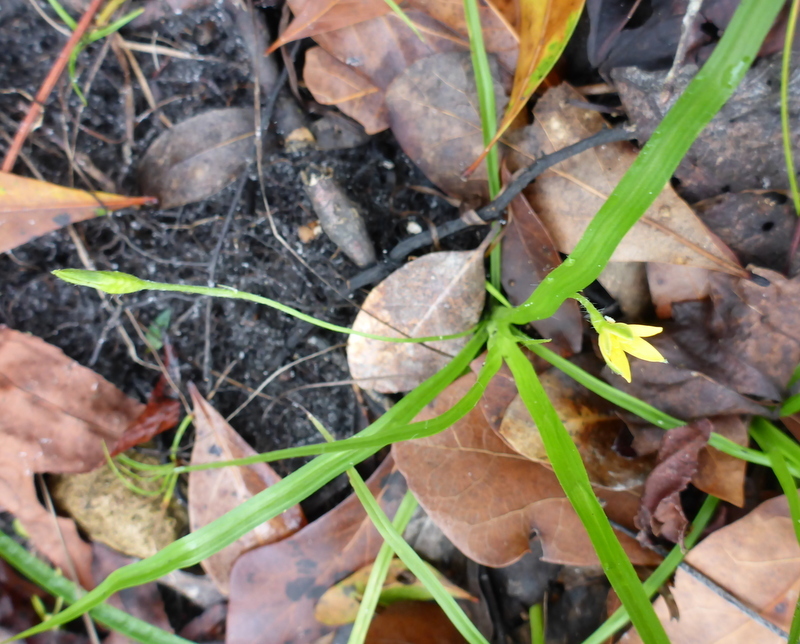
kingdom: Plantae
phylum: Tracheophyta
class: Liliopsida
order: Asparagales
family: Hypoxidaceae
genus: Hypoxis
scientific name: Hypoxis curtissii
